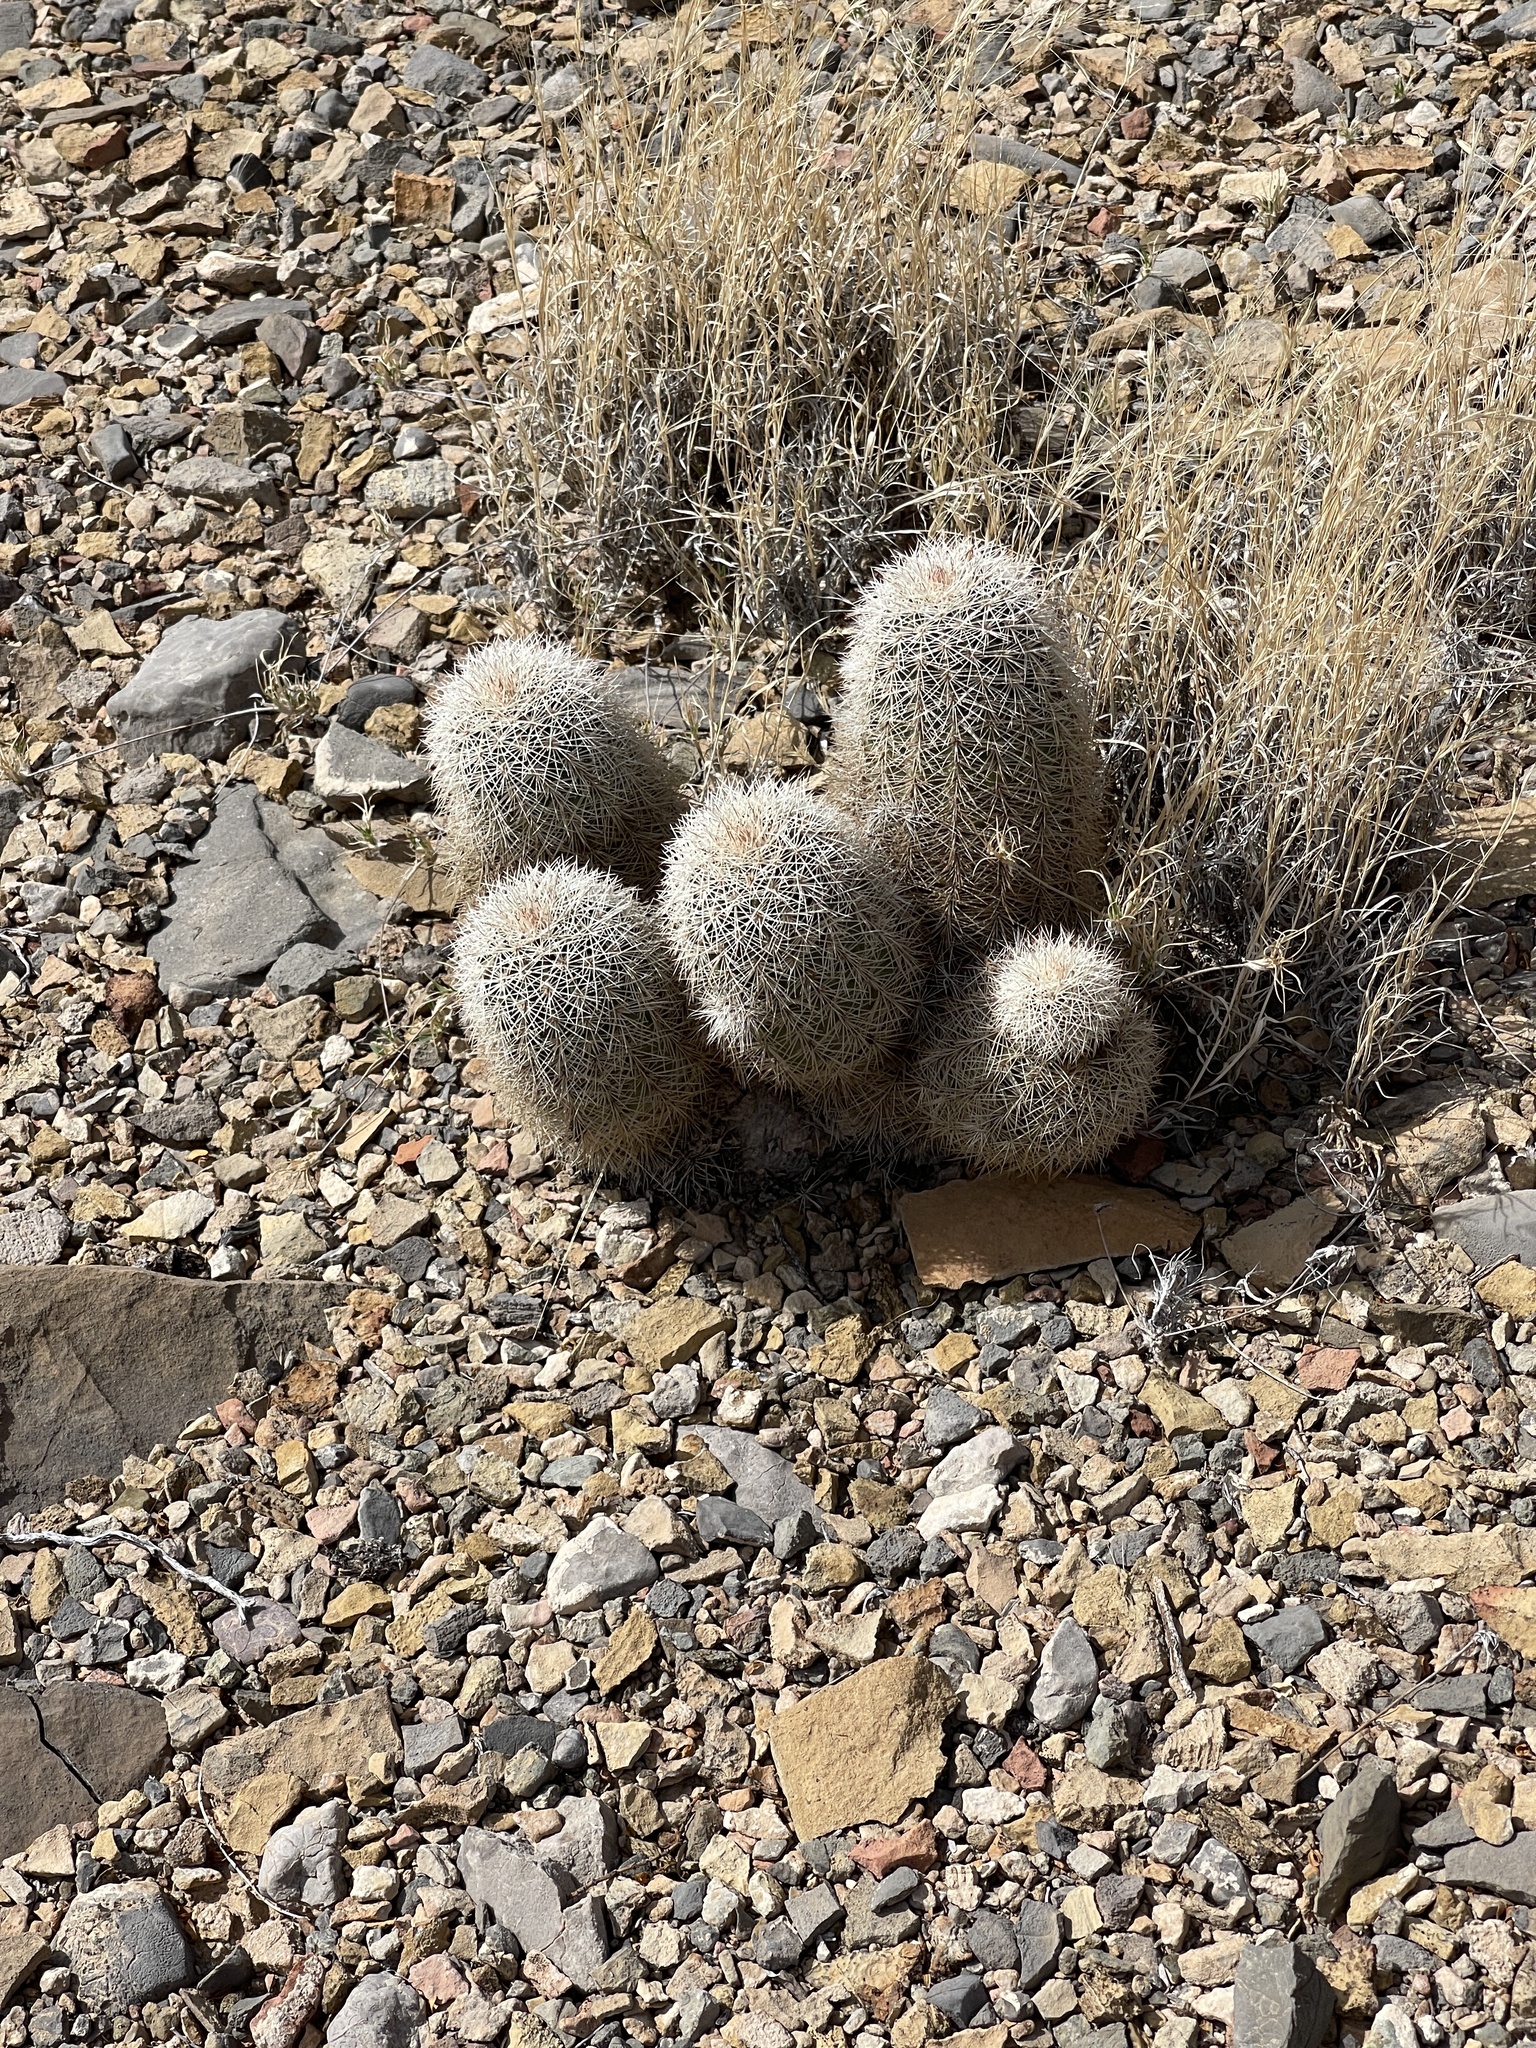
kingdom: Plantae
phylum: Tracheophyta
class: Magnoliopsida
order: Caryophyllales
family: Cactaceae
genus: Echinocereus
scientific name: Echinocereus dasyacanthus
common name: Spiny hedgehog cactus
